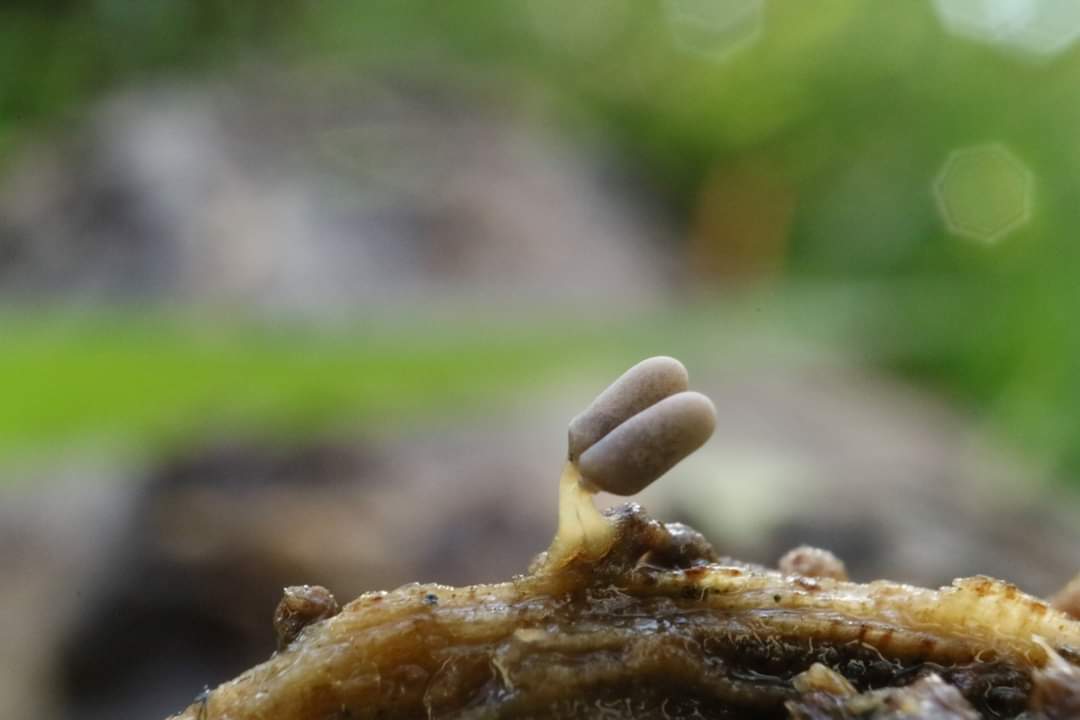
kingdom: Protozoa
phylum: Mycetozoa
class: Myxomycetes
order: Trichiales
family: Arcyriaceae
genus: Arcyria
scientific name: Arcyria cinerea
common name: White carnival candy slime mold
